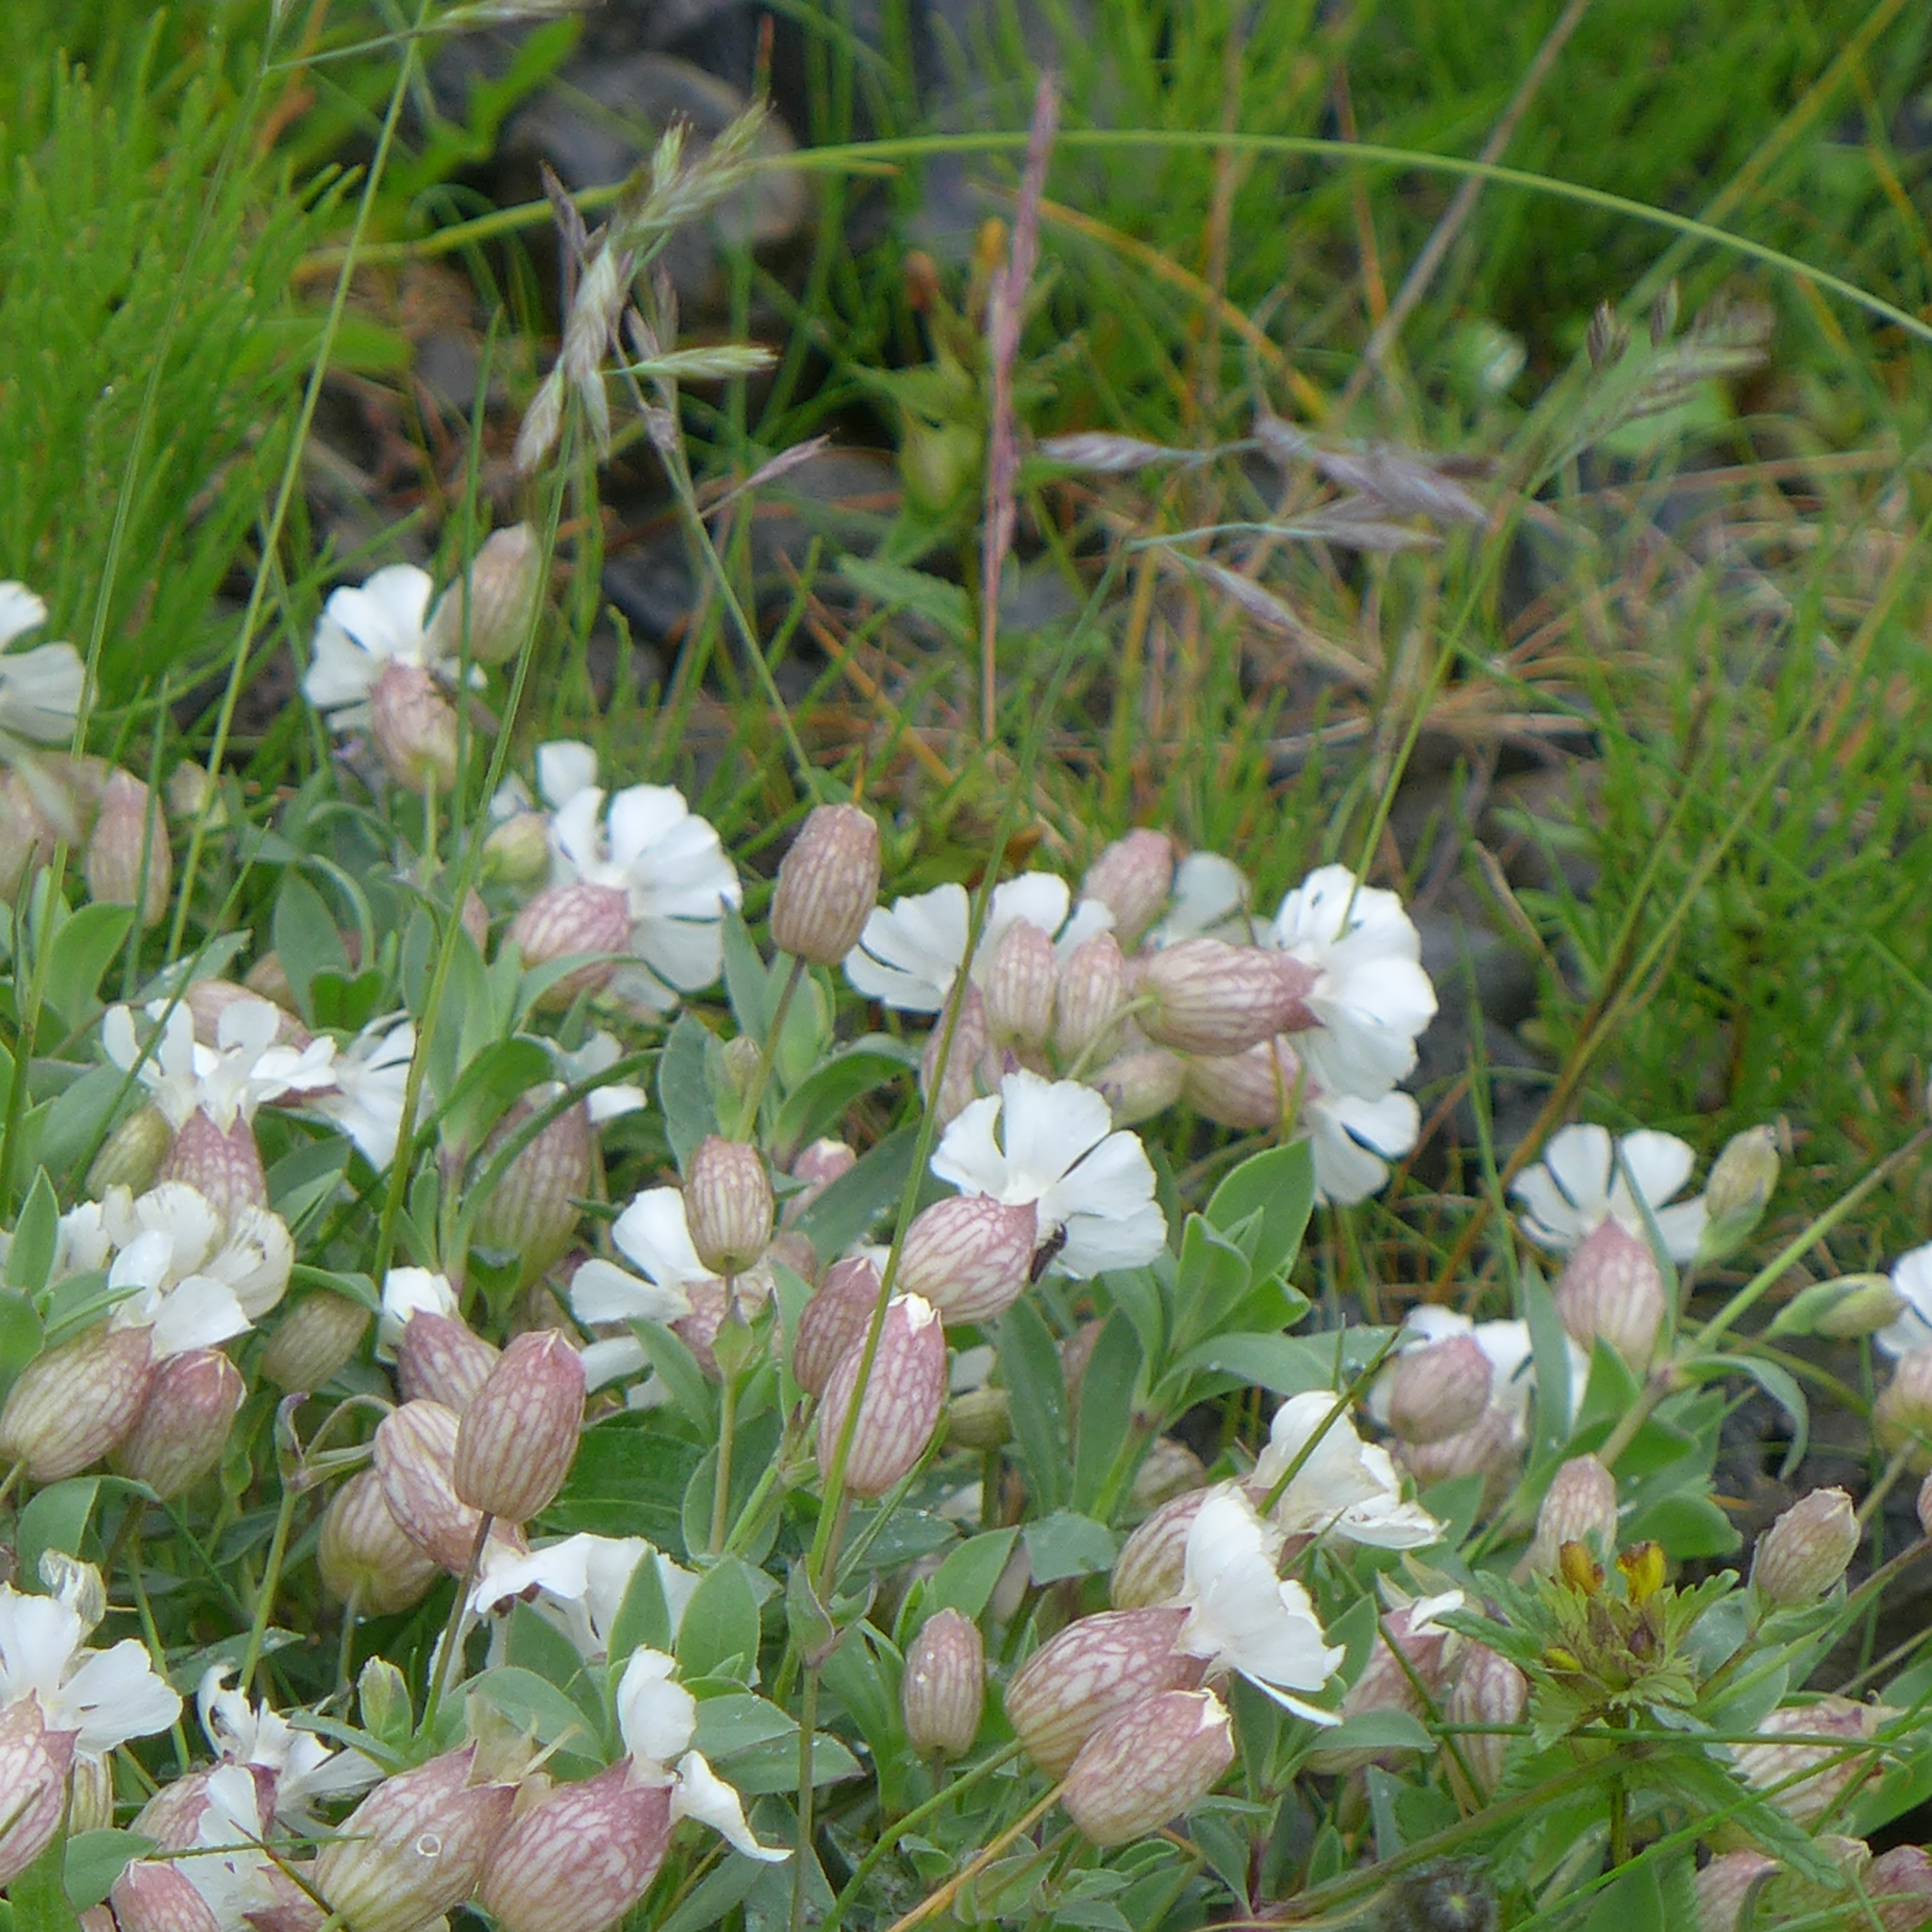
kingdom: Plantae
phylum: Tracheophyta
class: Magnoliopsida
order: Caryophyllales
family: Caryophyllaceae
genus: Silene
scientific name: Silene uniflora
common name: Sea campion
